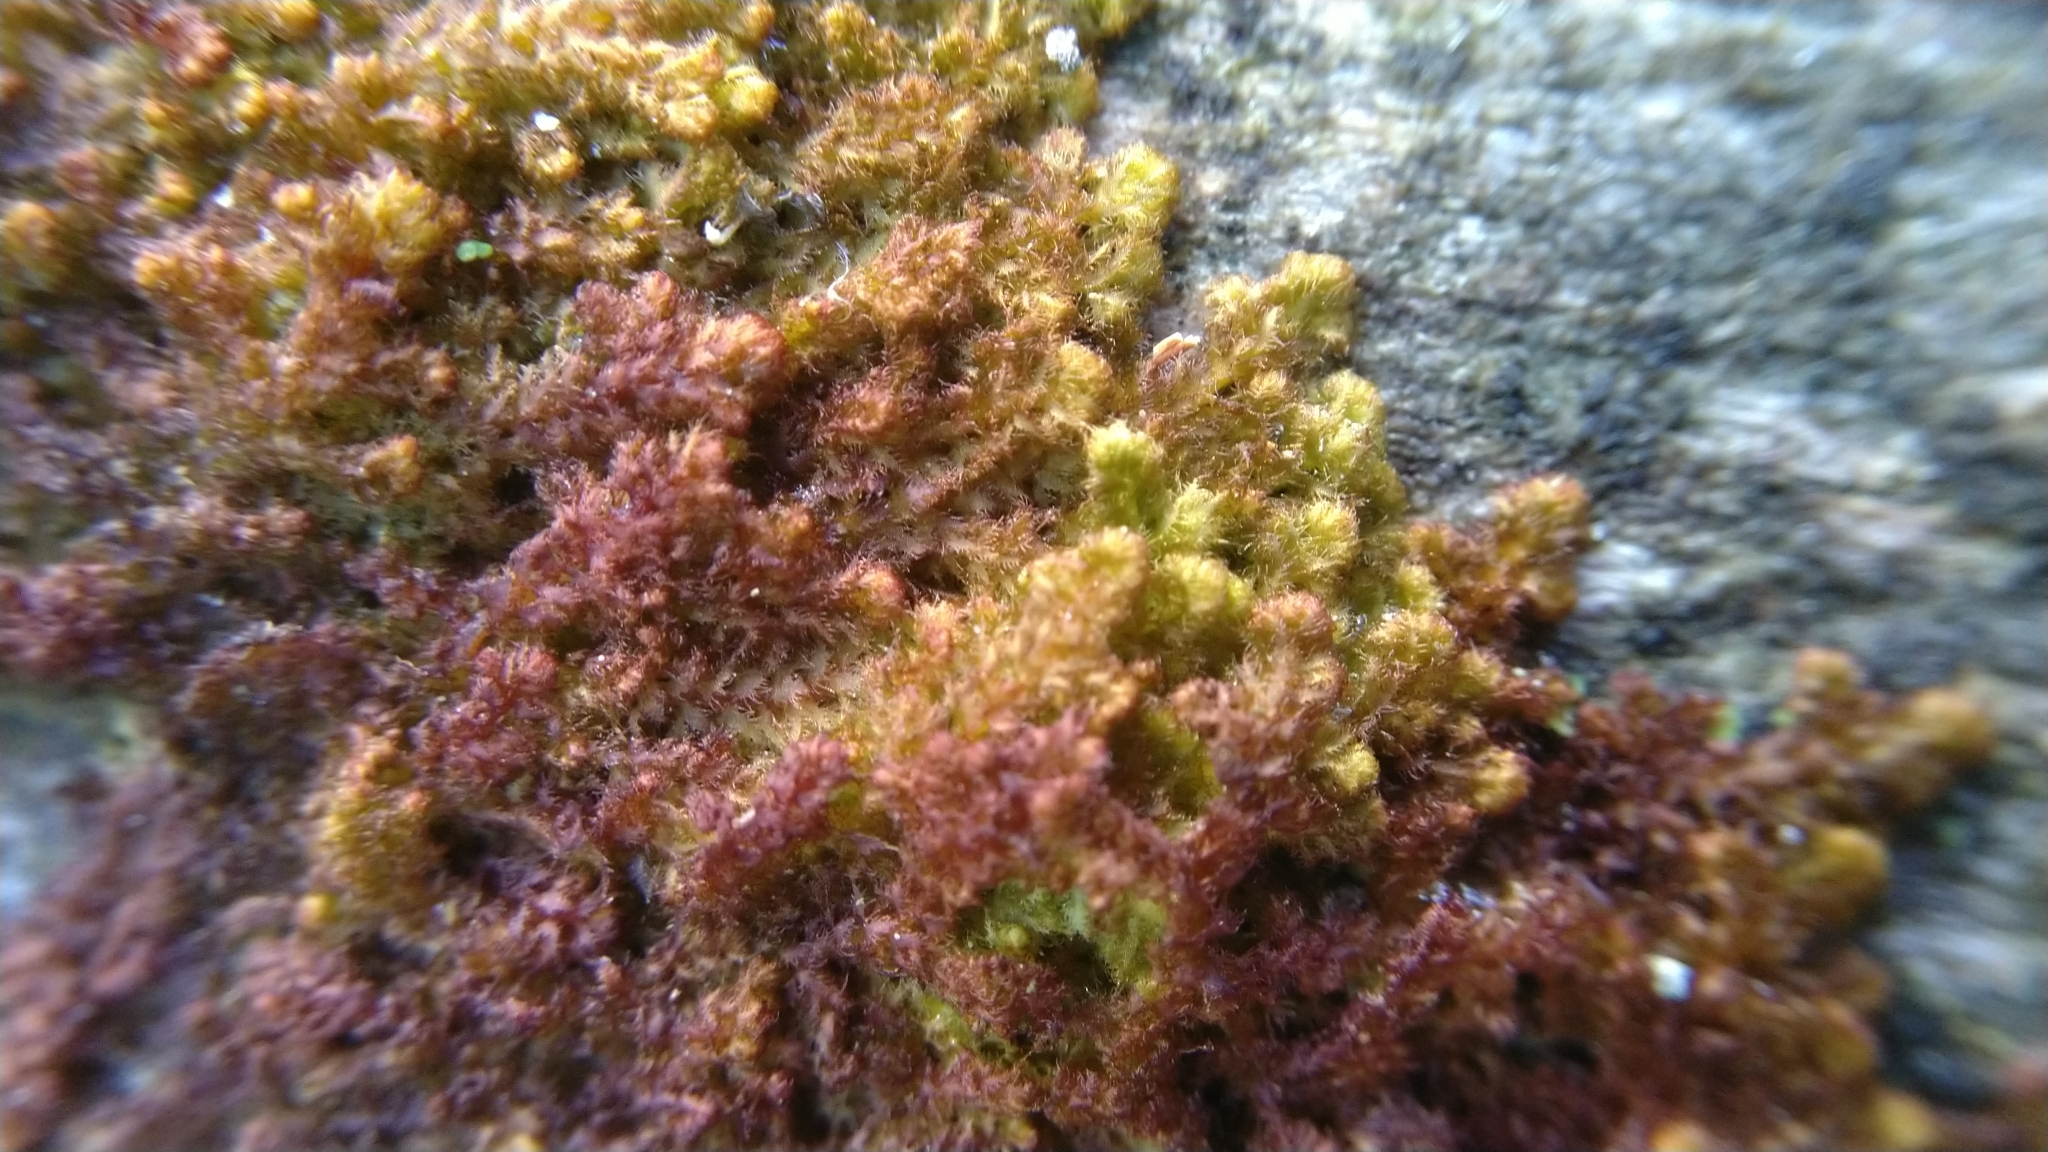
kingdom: Plantae
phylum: Marchantiophyta
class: Jungermanniopsida
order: Ptilidiales
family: Ptilidiaceae
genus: Ptilidium
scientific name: Ptilidium pulcherrimum
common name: Tree fringewort
